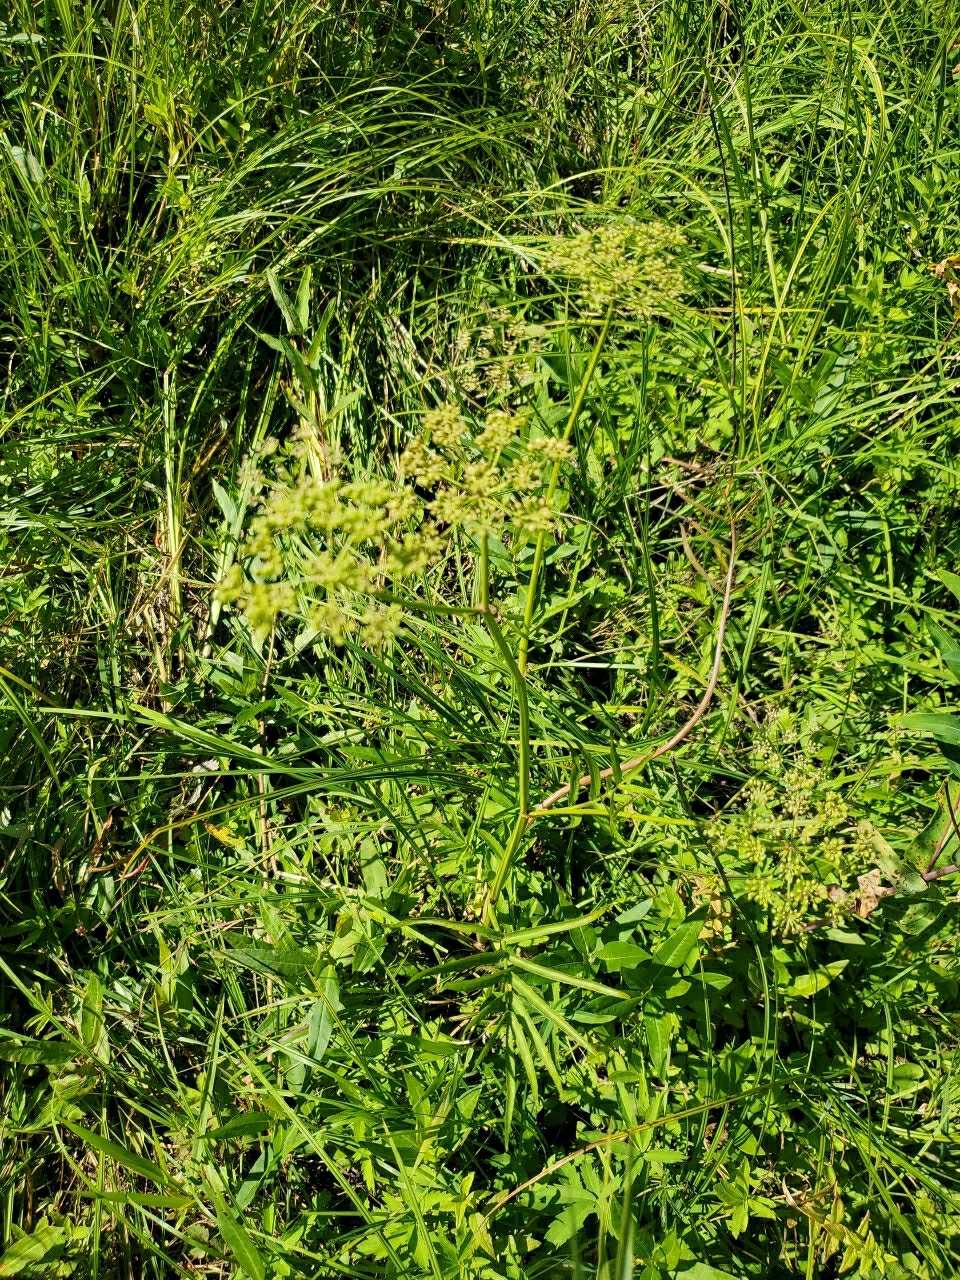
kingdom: Plantae
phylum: Tracheophyta
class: Magnoliopsida
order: Apiales
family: Apiaceae
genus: Sium
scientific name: Sium suave
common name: Hemlock water-parsnip
